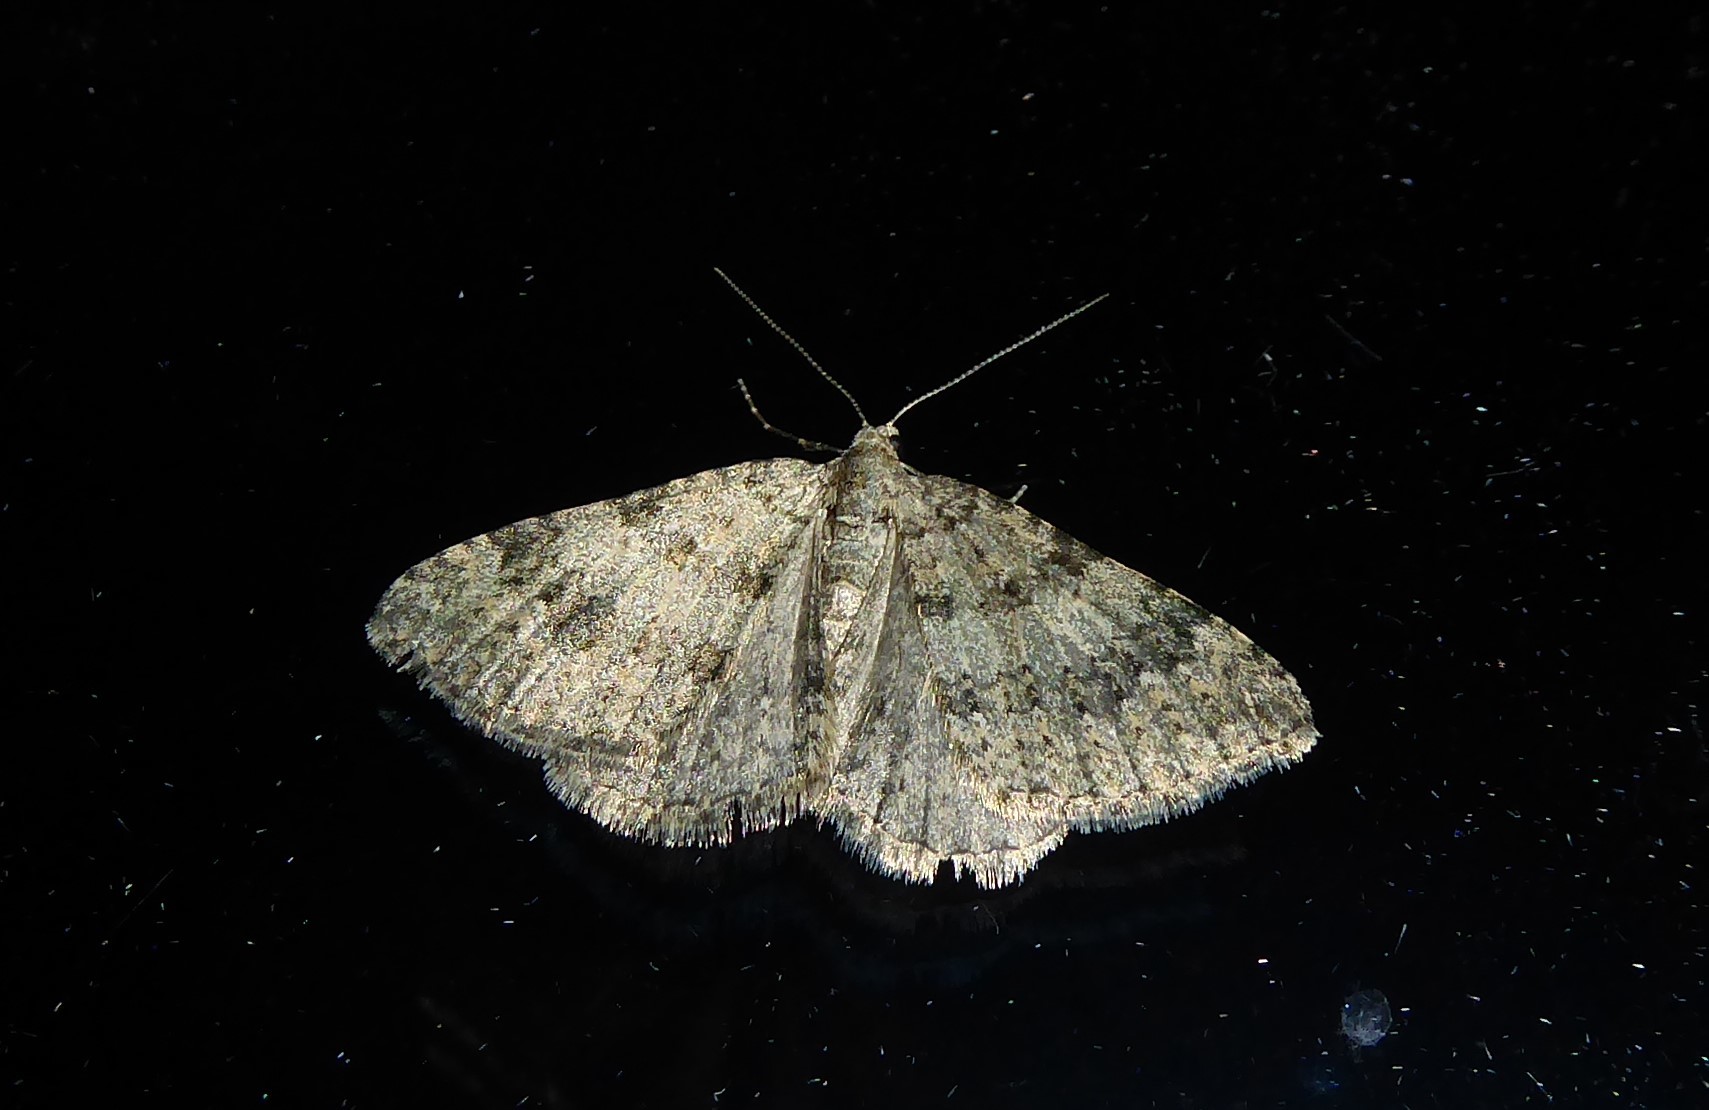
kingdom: Animalia
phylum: Arthropoda
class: Insecta
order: Lepidoptera
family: Geometridae
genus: Helastia
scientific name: Helastia corcularia
